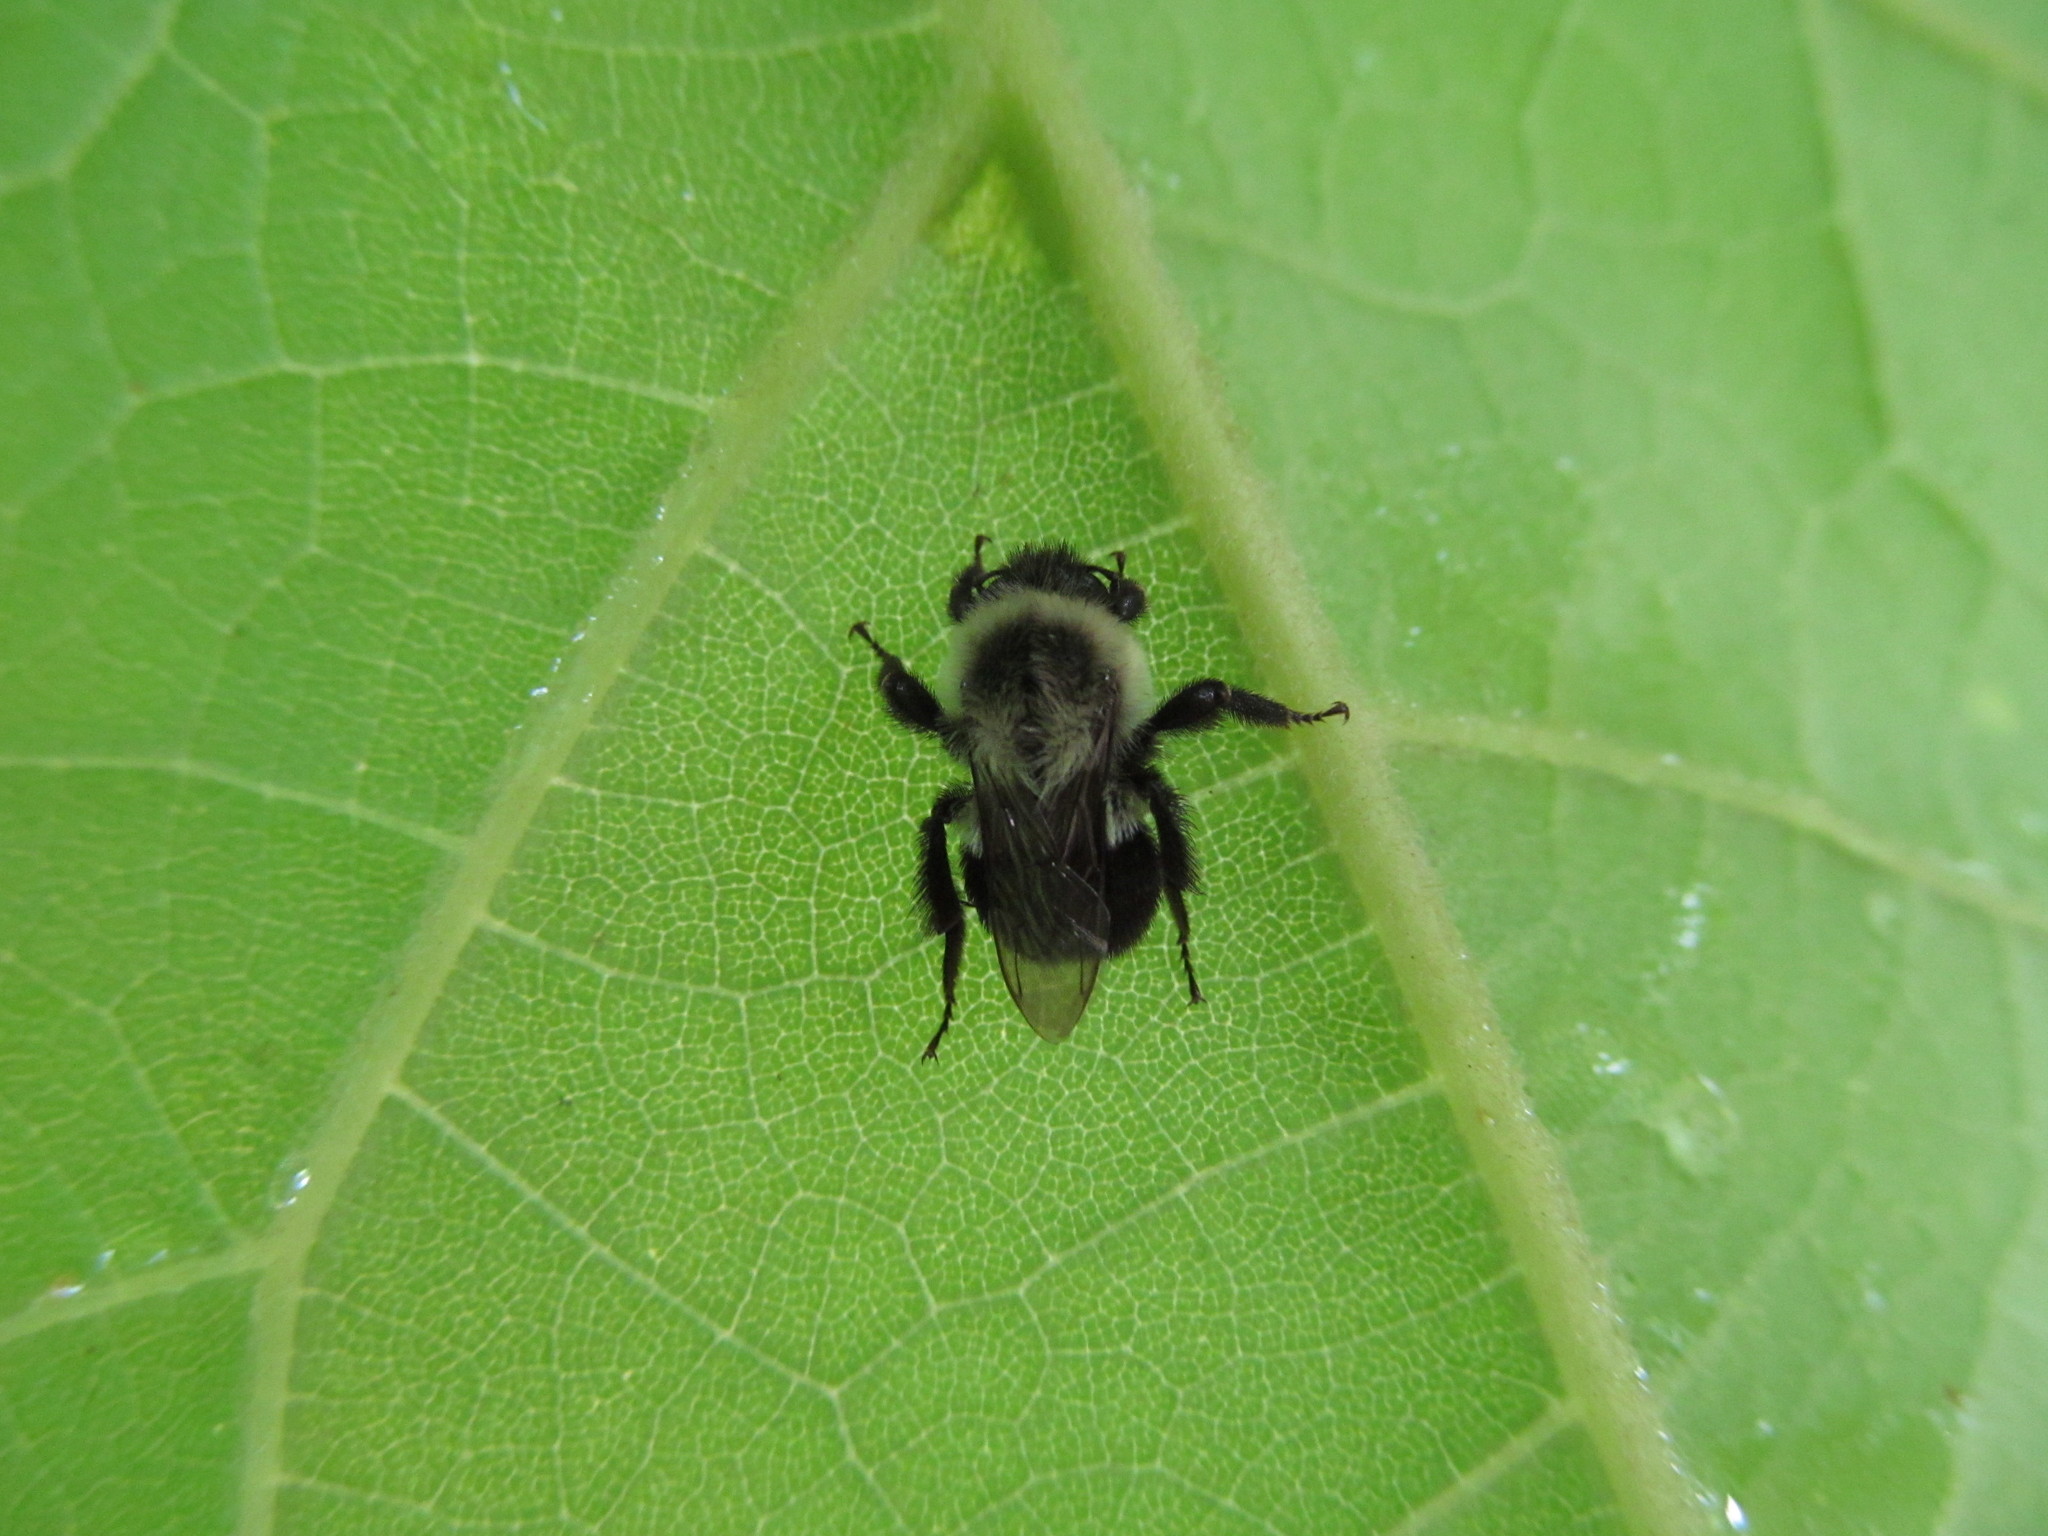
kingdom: Animalia
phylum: Arthropoda
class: Insecta
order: Hymenoptera
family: Apidae
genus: Bombus
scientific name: Bombus impatiens
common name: Common eastern bumble bee
